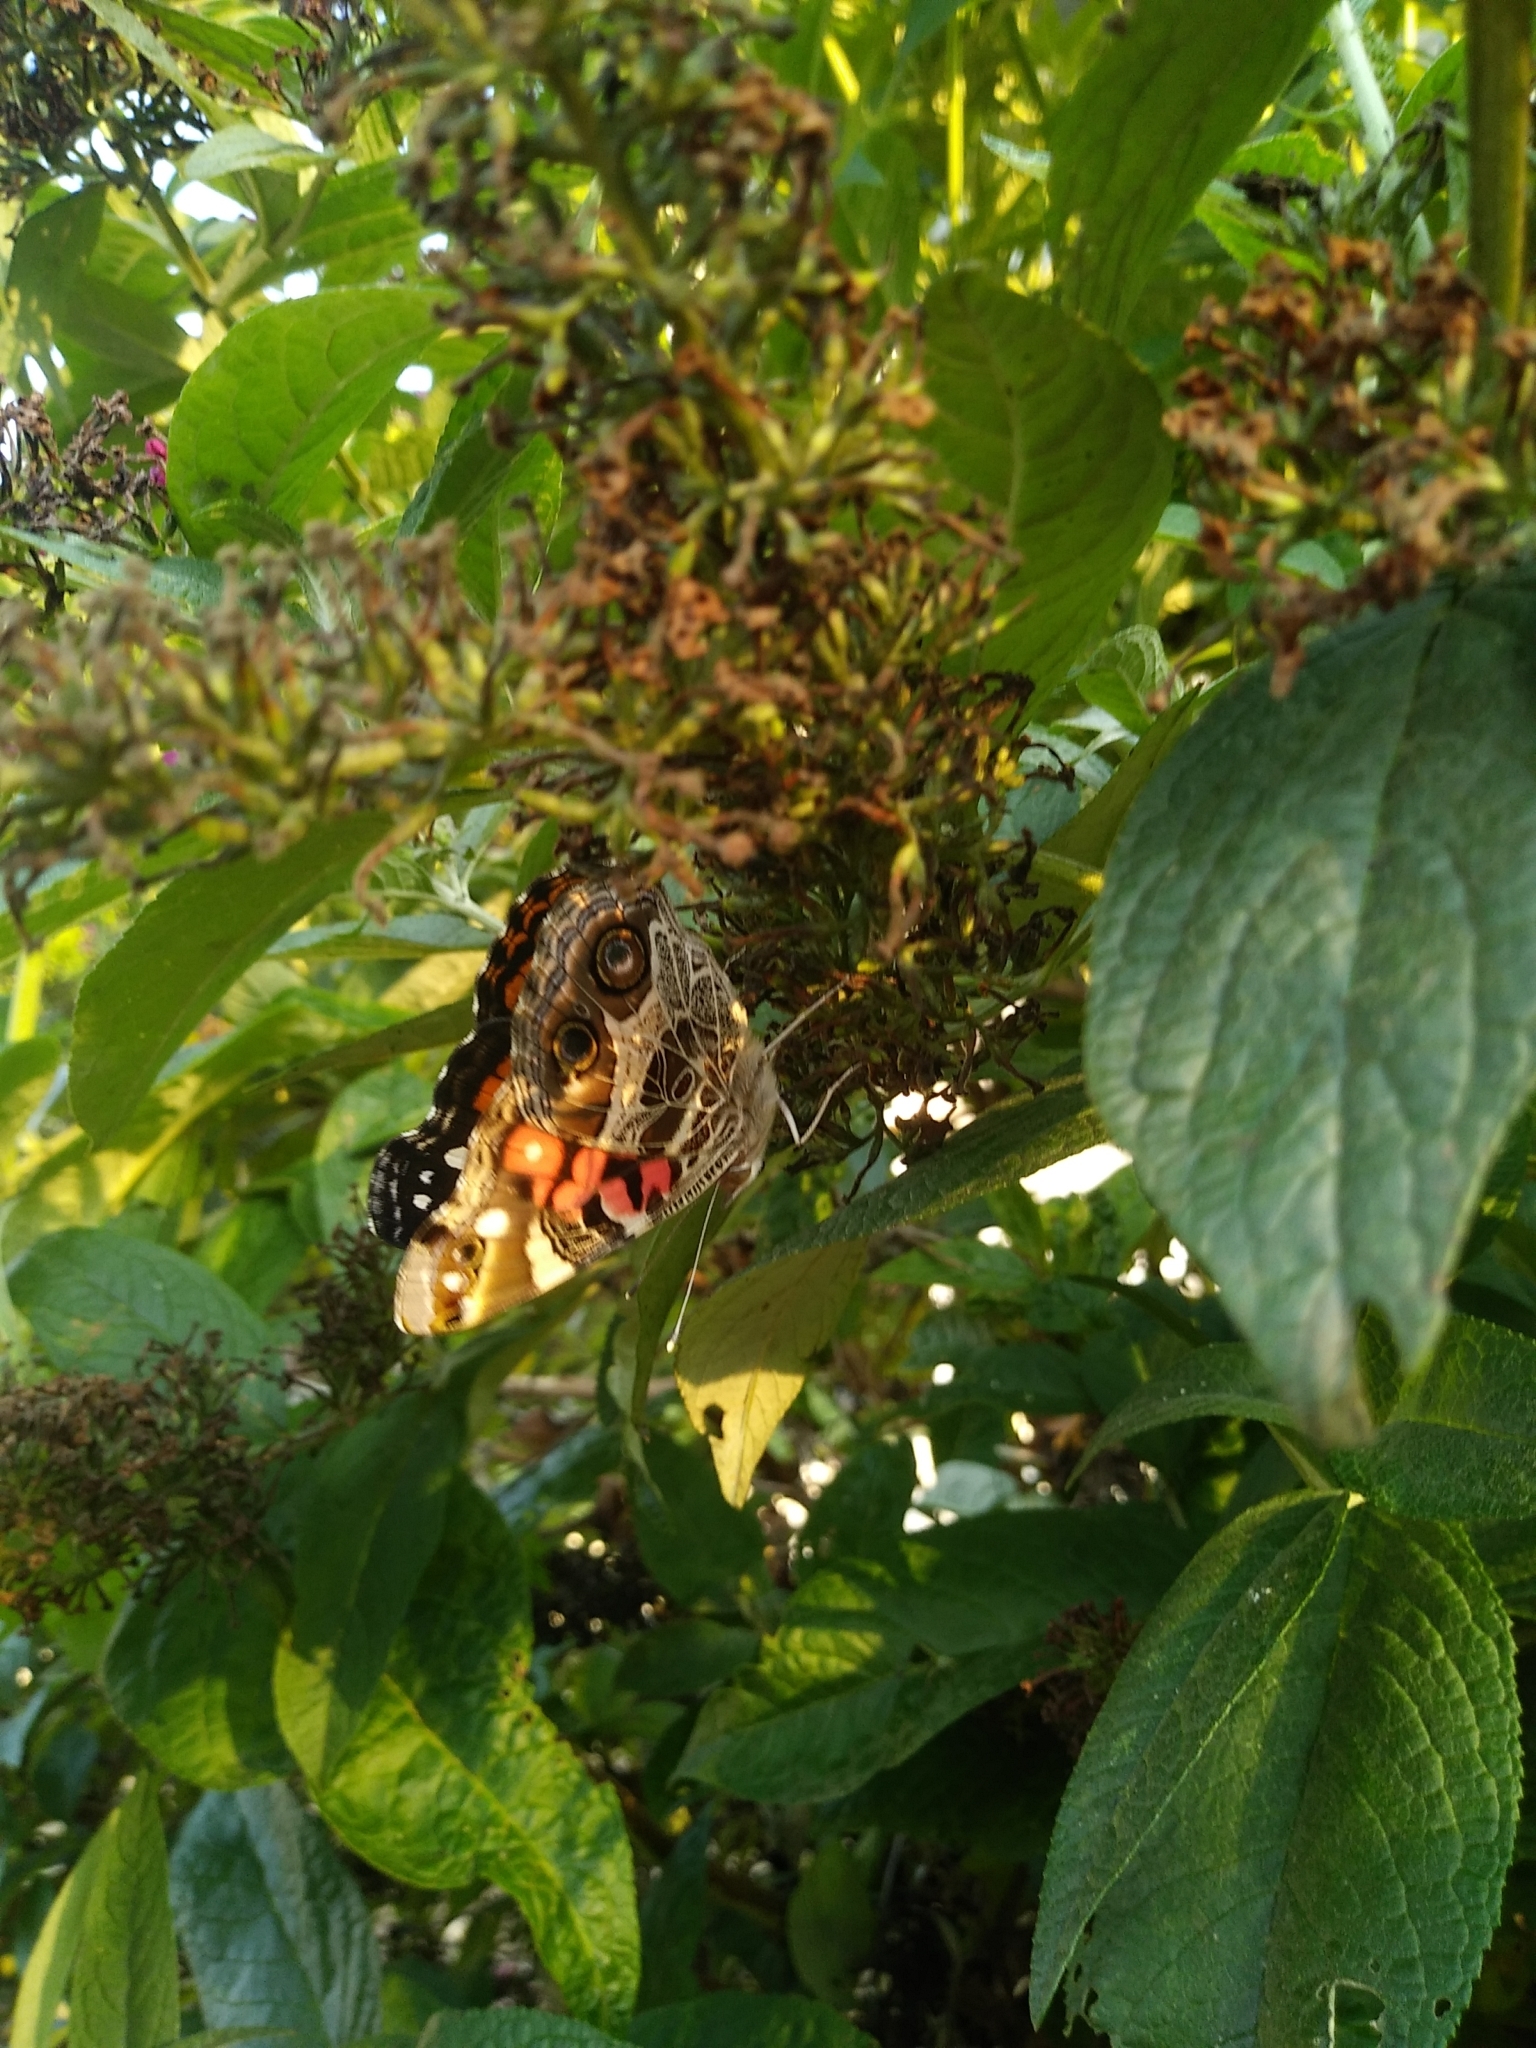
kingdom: Animalia
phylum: Arthropoda
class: Insecta
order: Lepidoptera
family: Nymphalidae
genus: Vanessa
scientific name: Vanessa virginiensis
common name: American lady
